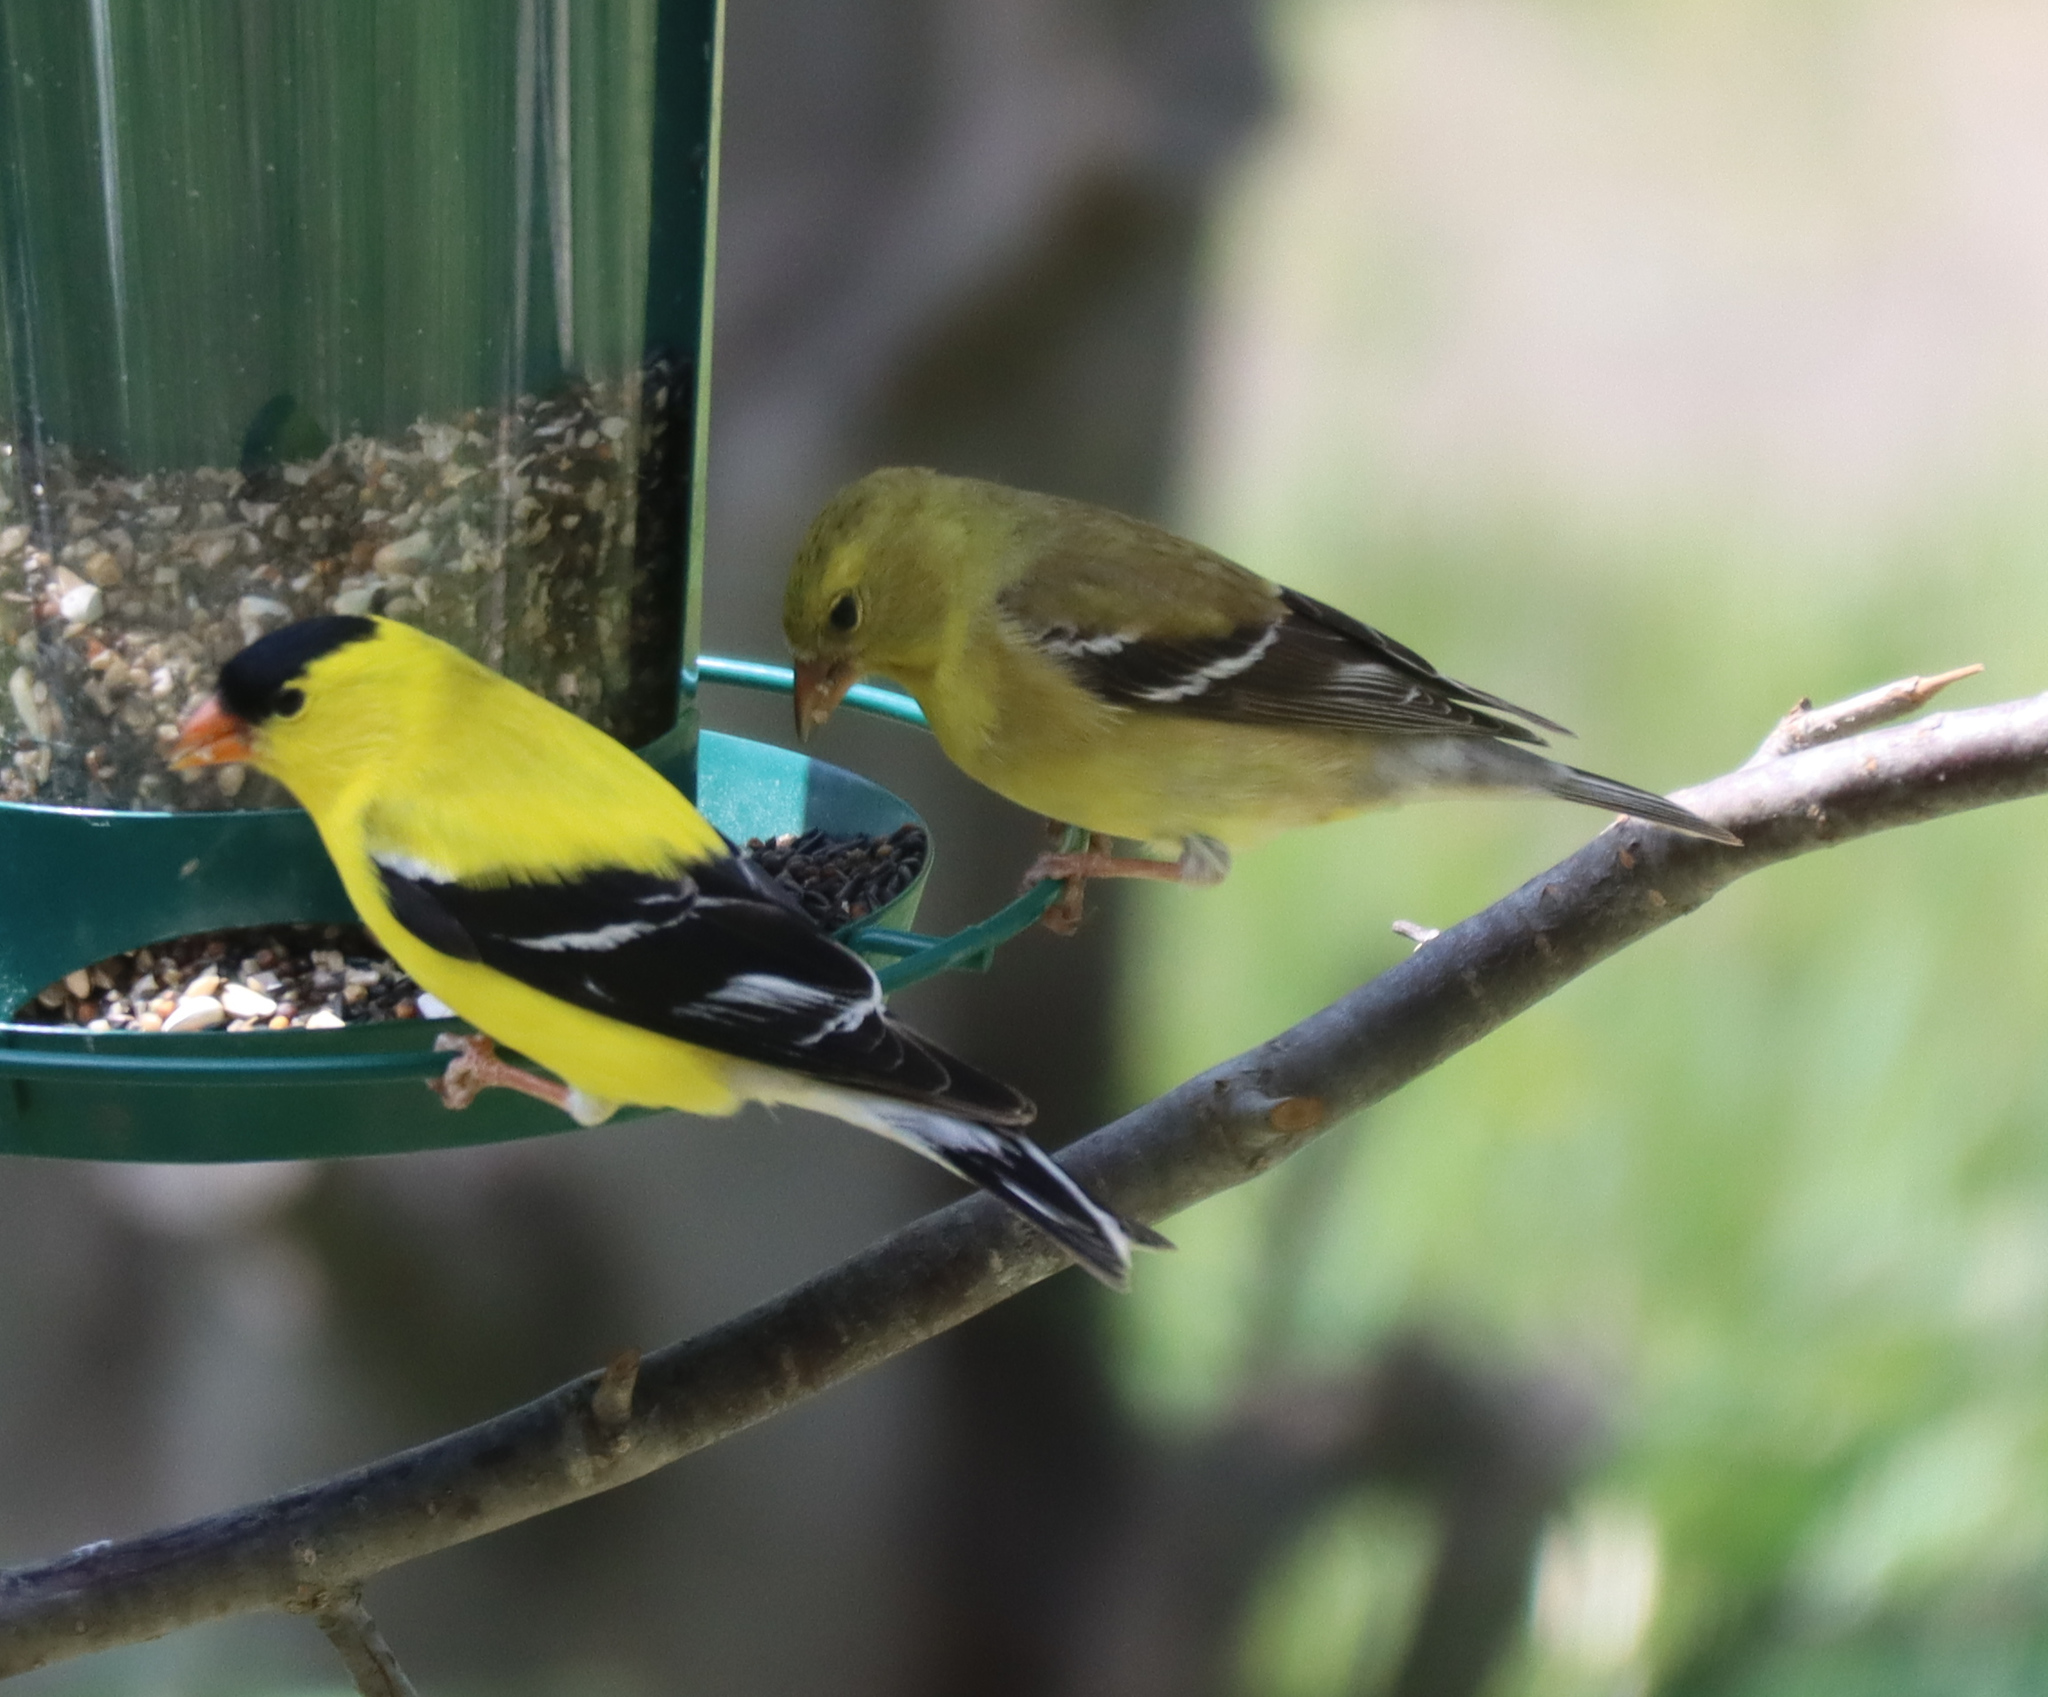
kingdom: Animalia
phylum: Chordata
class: Aves
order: Passeriformes
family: Fringillidae
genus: Spinus
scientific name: Spinus tristis
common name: American goldfinch
